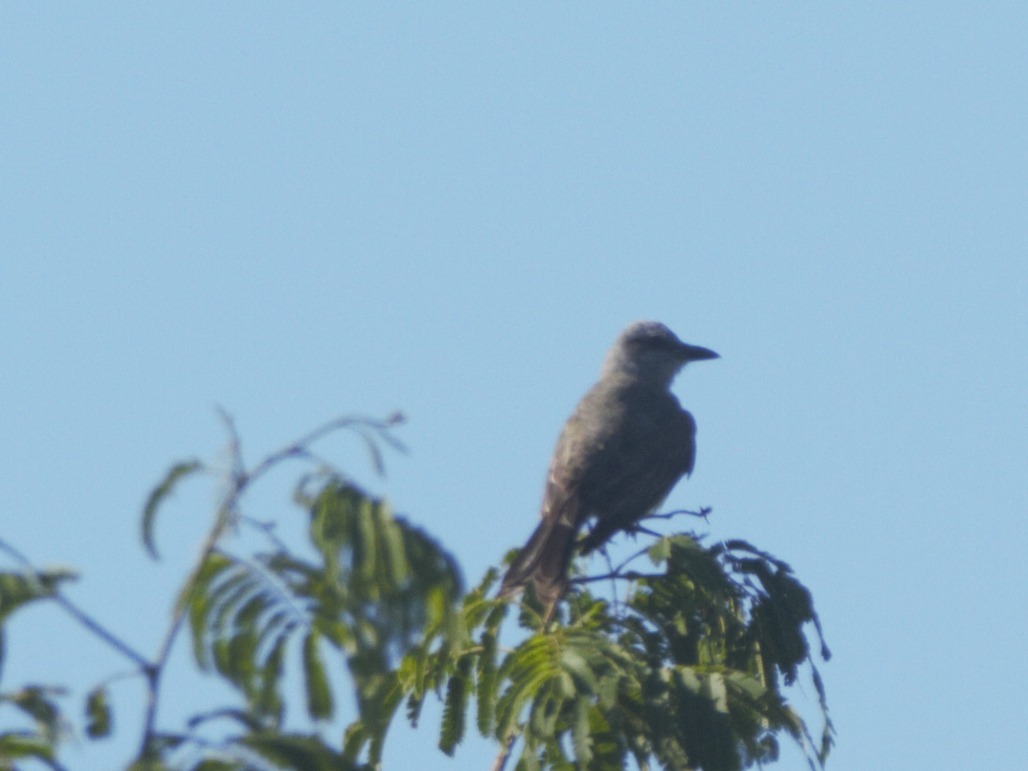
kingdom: Animalia
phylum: Chordata
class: Aves
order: Passeriformes
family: Tyrannidae
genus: Tyrannus
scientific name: Tyrannus melancholicus
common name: Tropical kingbird
